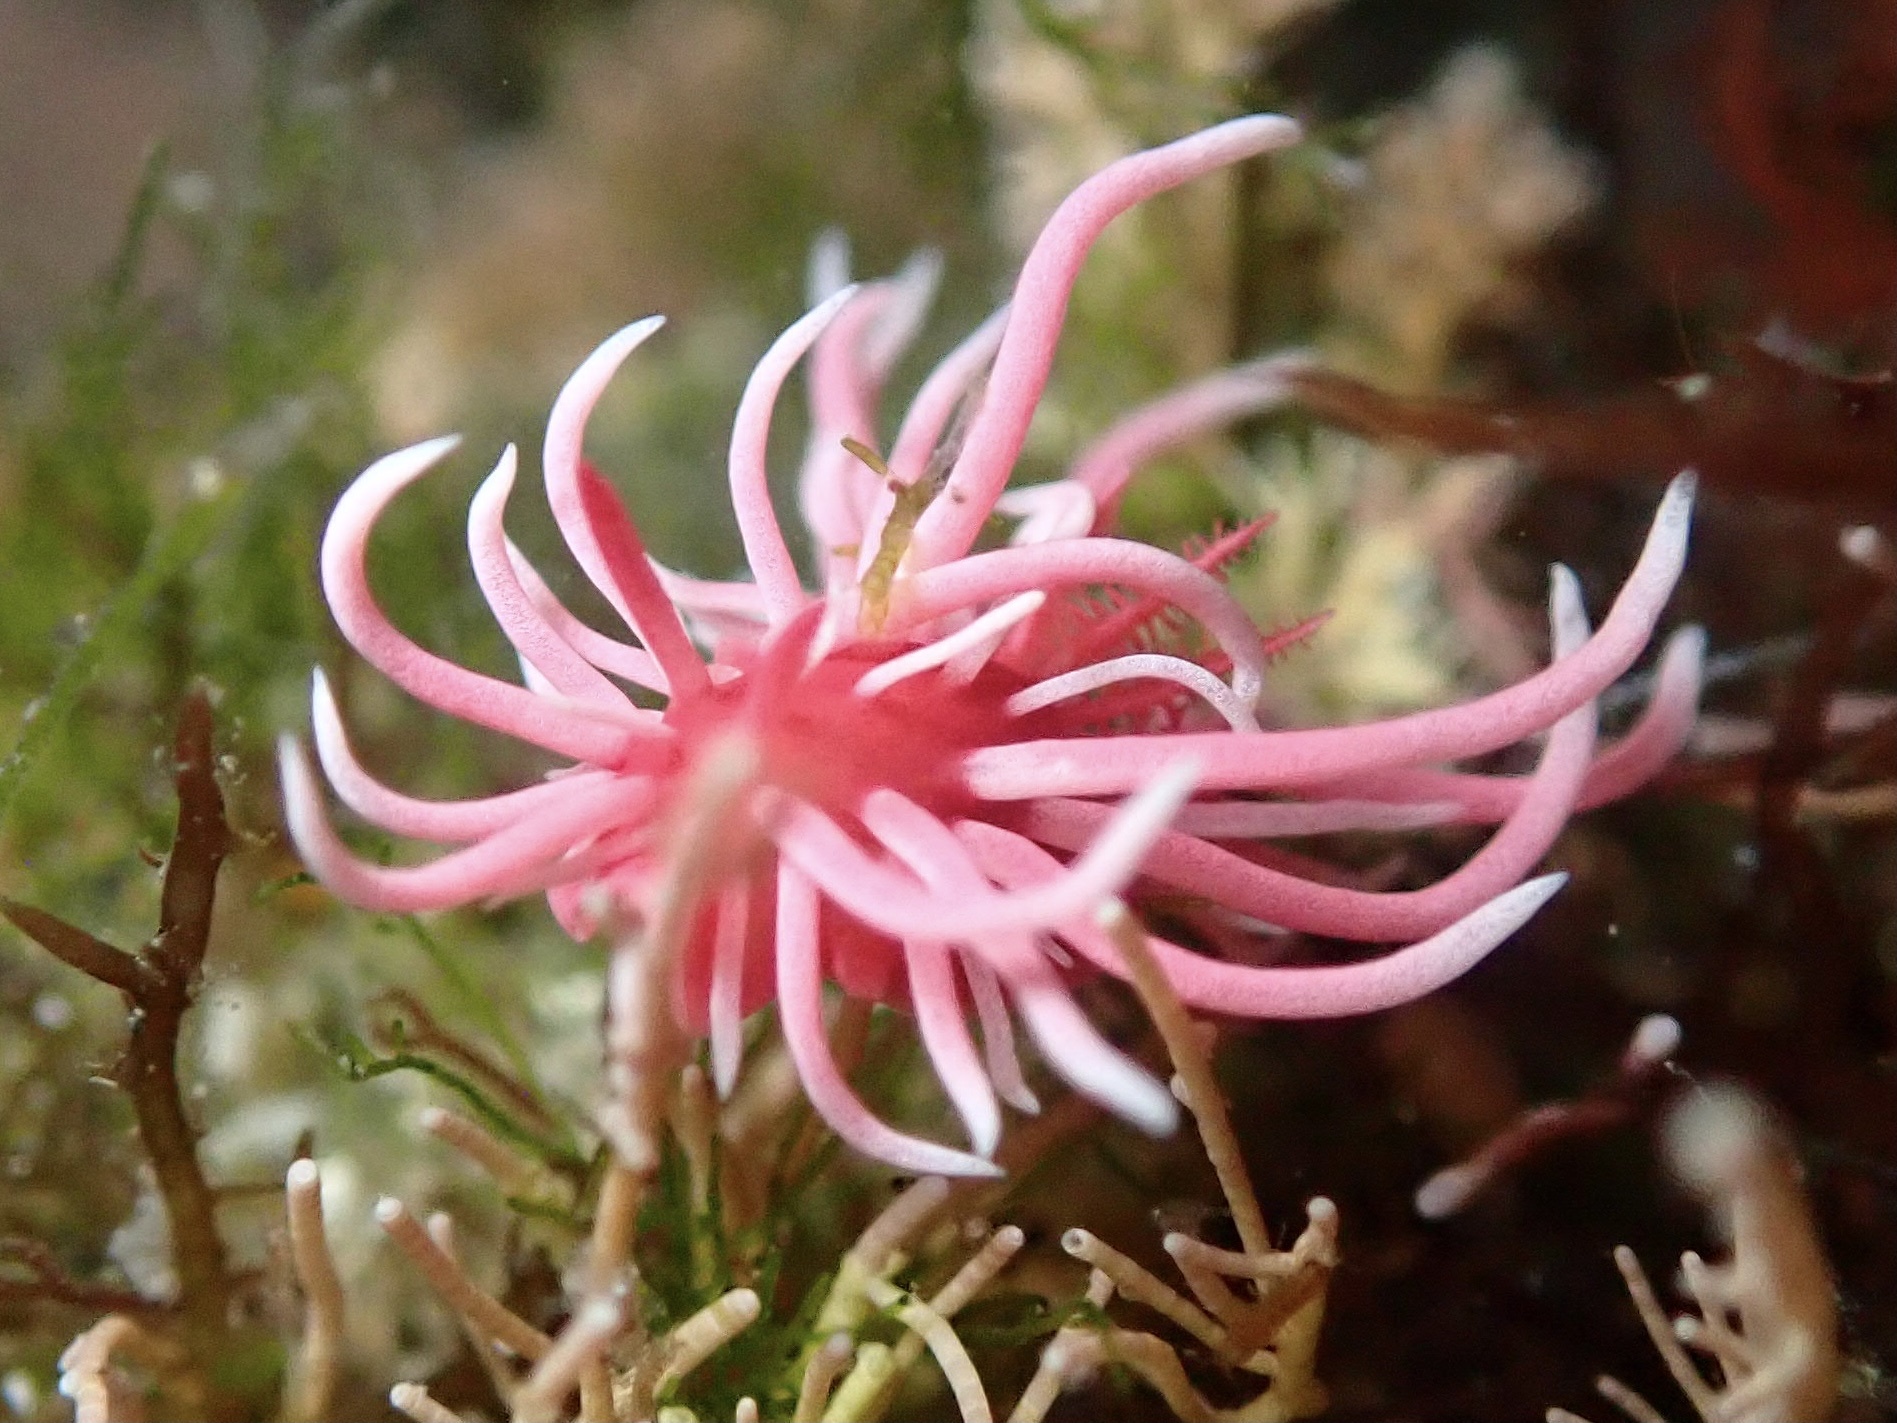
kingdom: Animalia
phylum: Mollusca
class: Gastropoda
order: Nudibranchia
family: Goniodorididae
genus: Okenia
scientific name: Okenia
